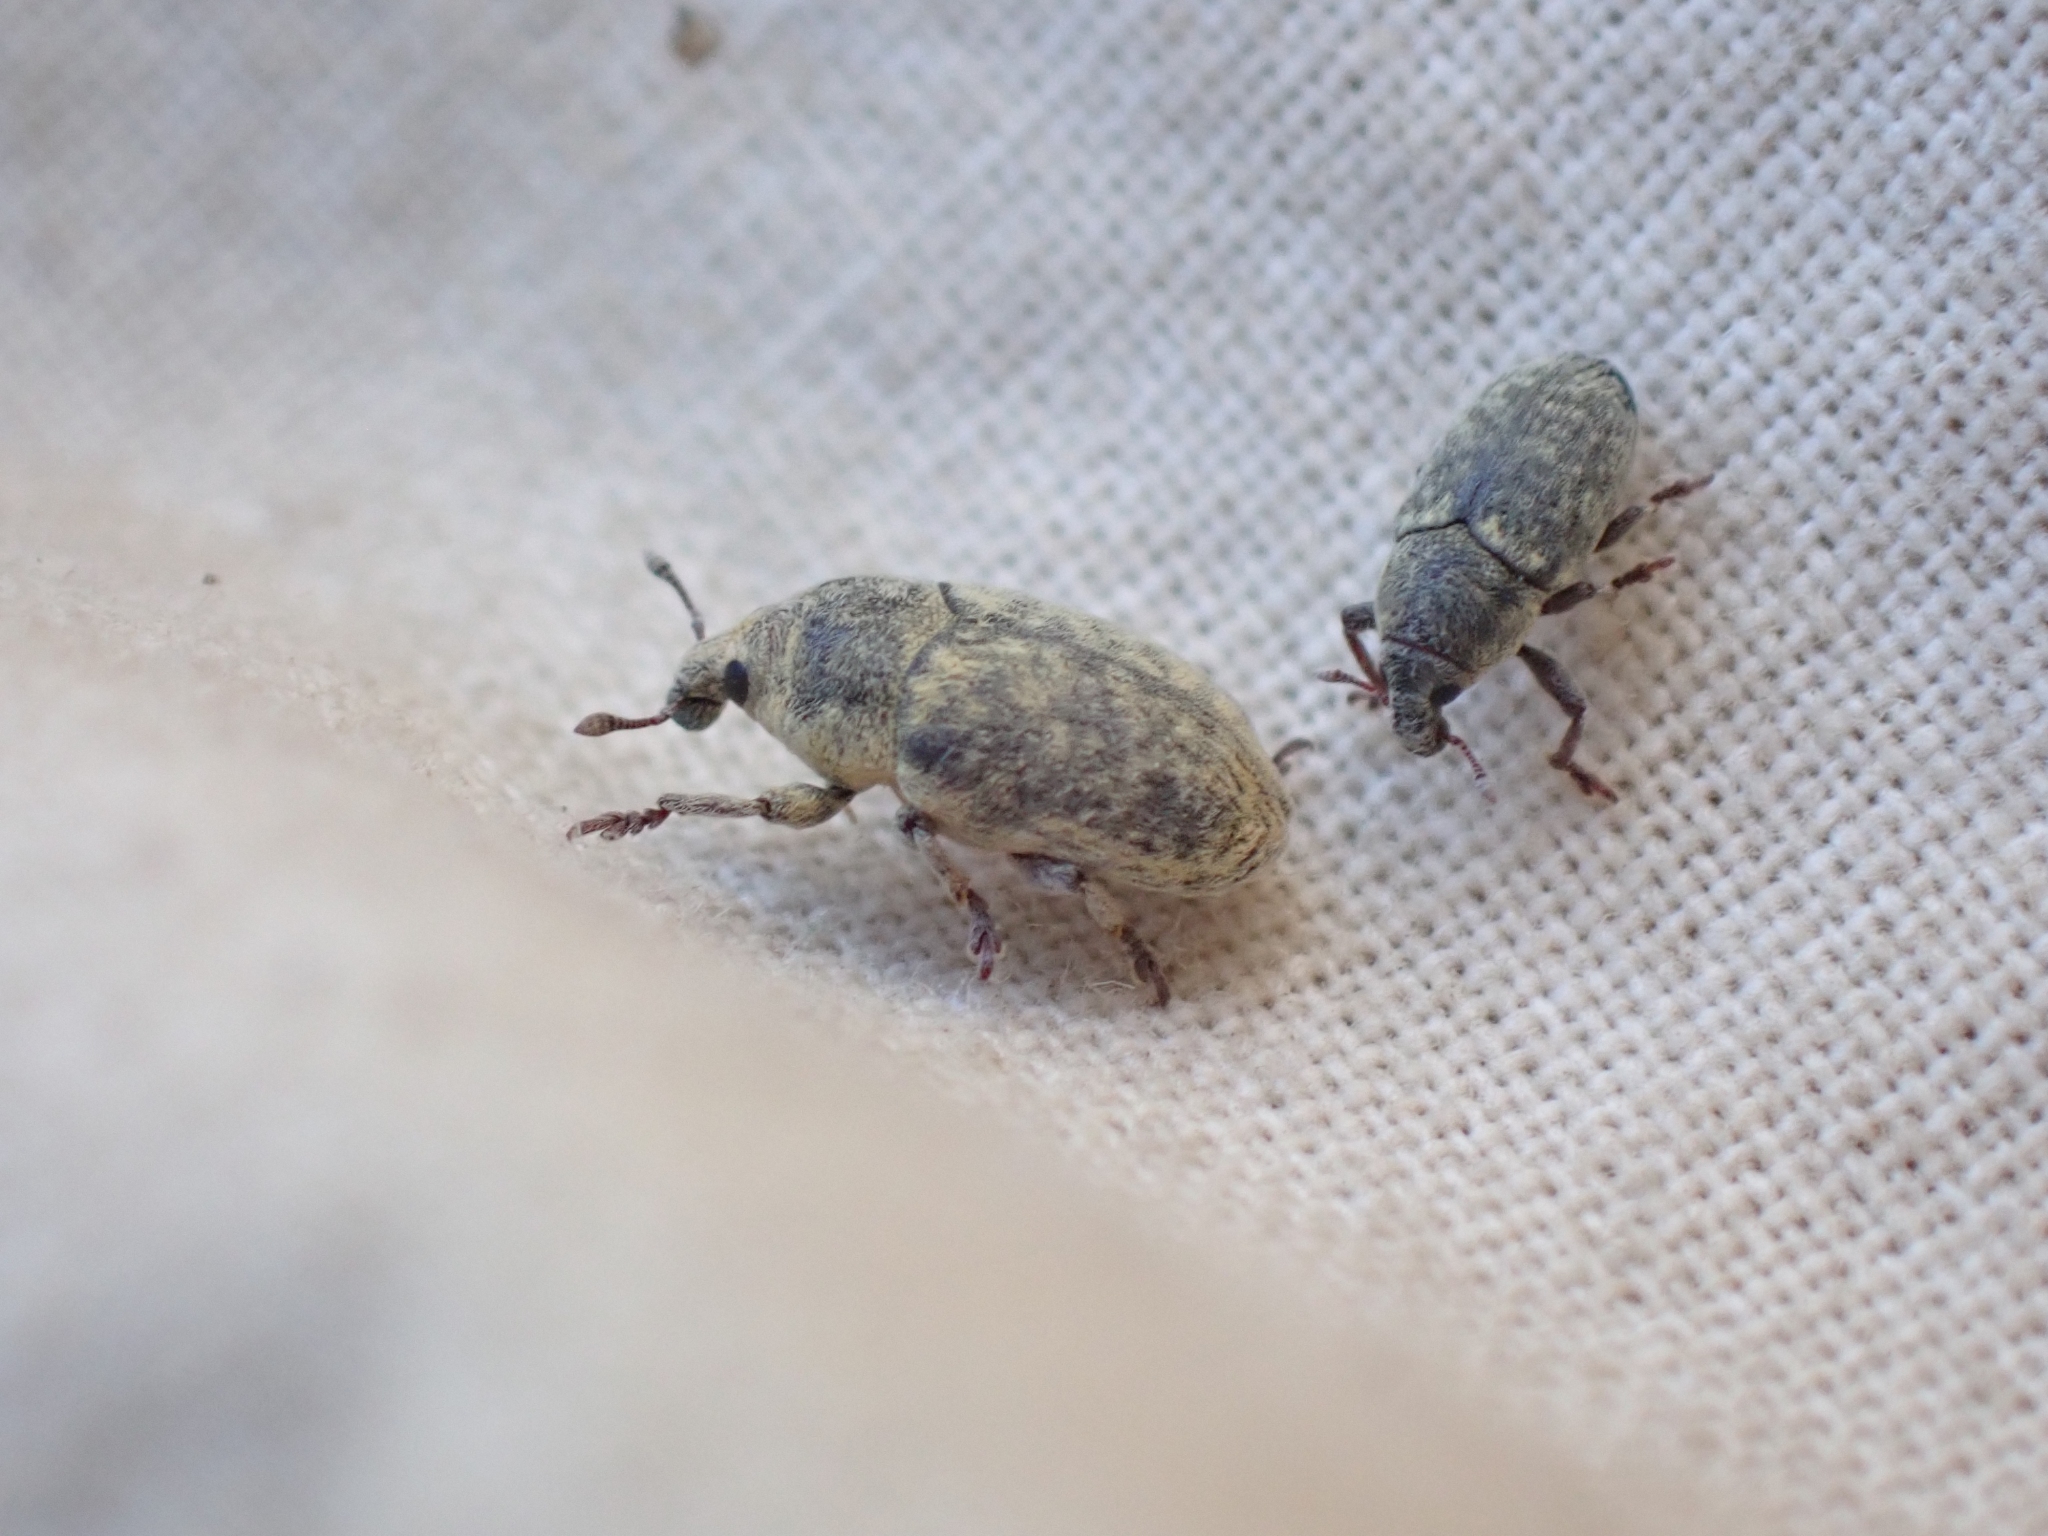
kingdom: Animalia
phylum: Arthropoda
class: Insecta
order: Coleoptera
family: Curculionidae
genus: Larinus
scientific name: Larinus minutus
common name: Weevil
